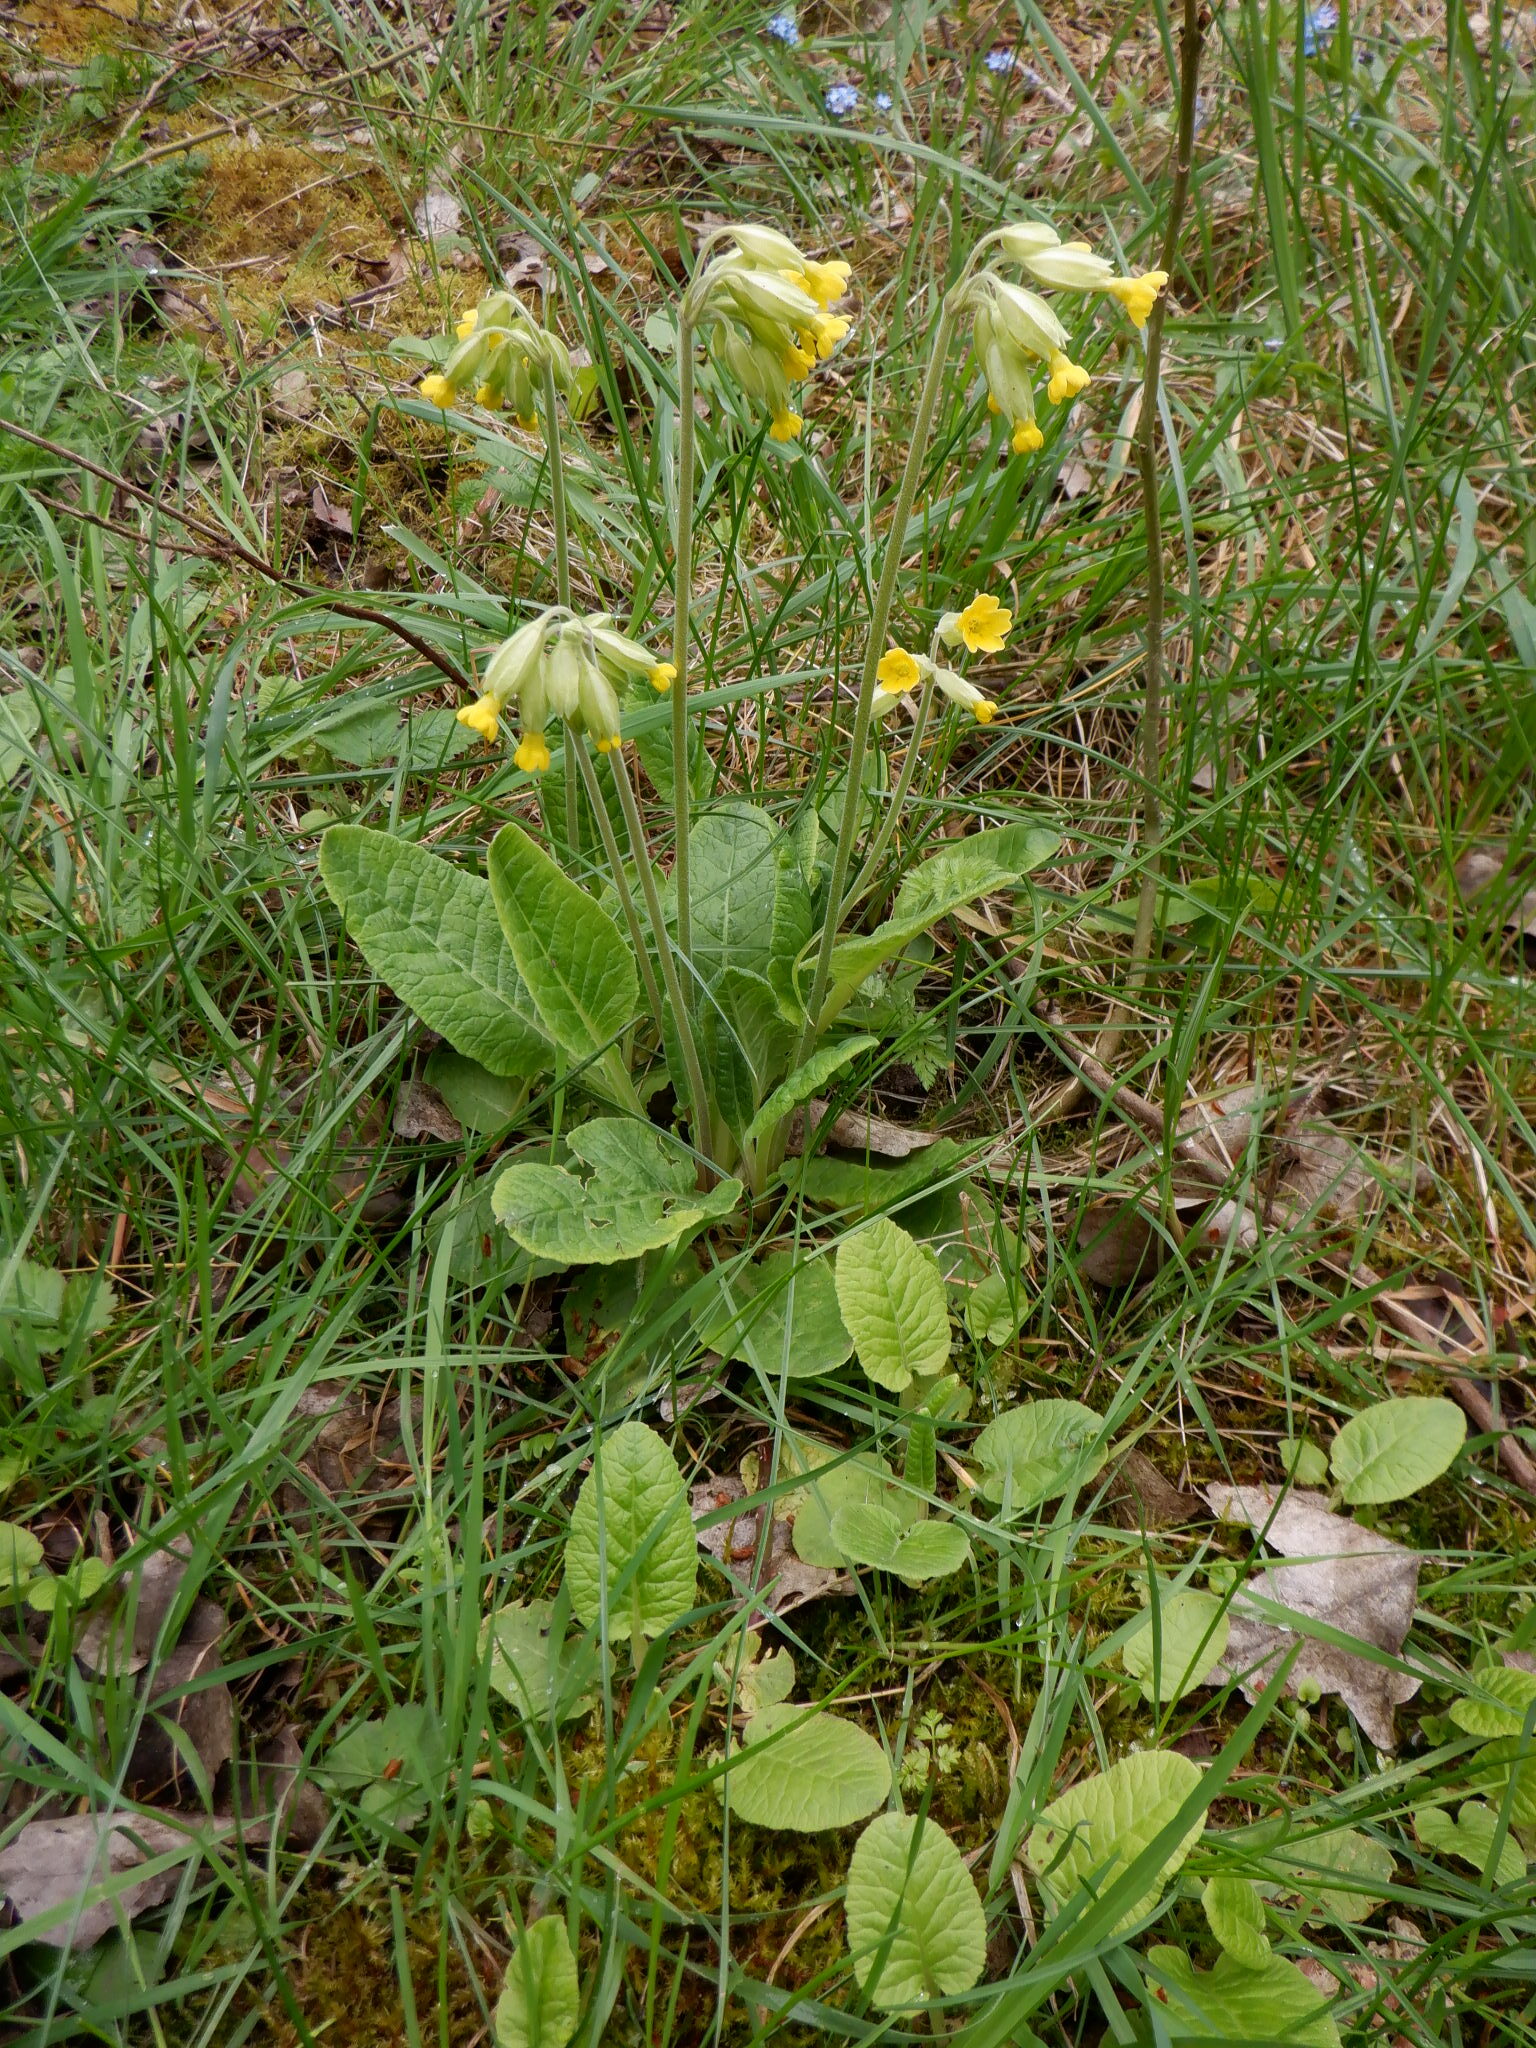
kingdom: Plantae
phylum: Tracheophyta
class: Magnoliopsida
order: Ericales
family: Primulaceae
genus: Primula
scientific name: Primula veris
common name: Cowslip
